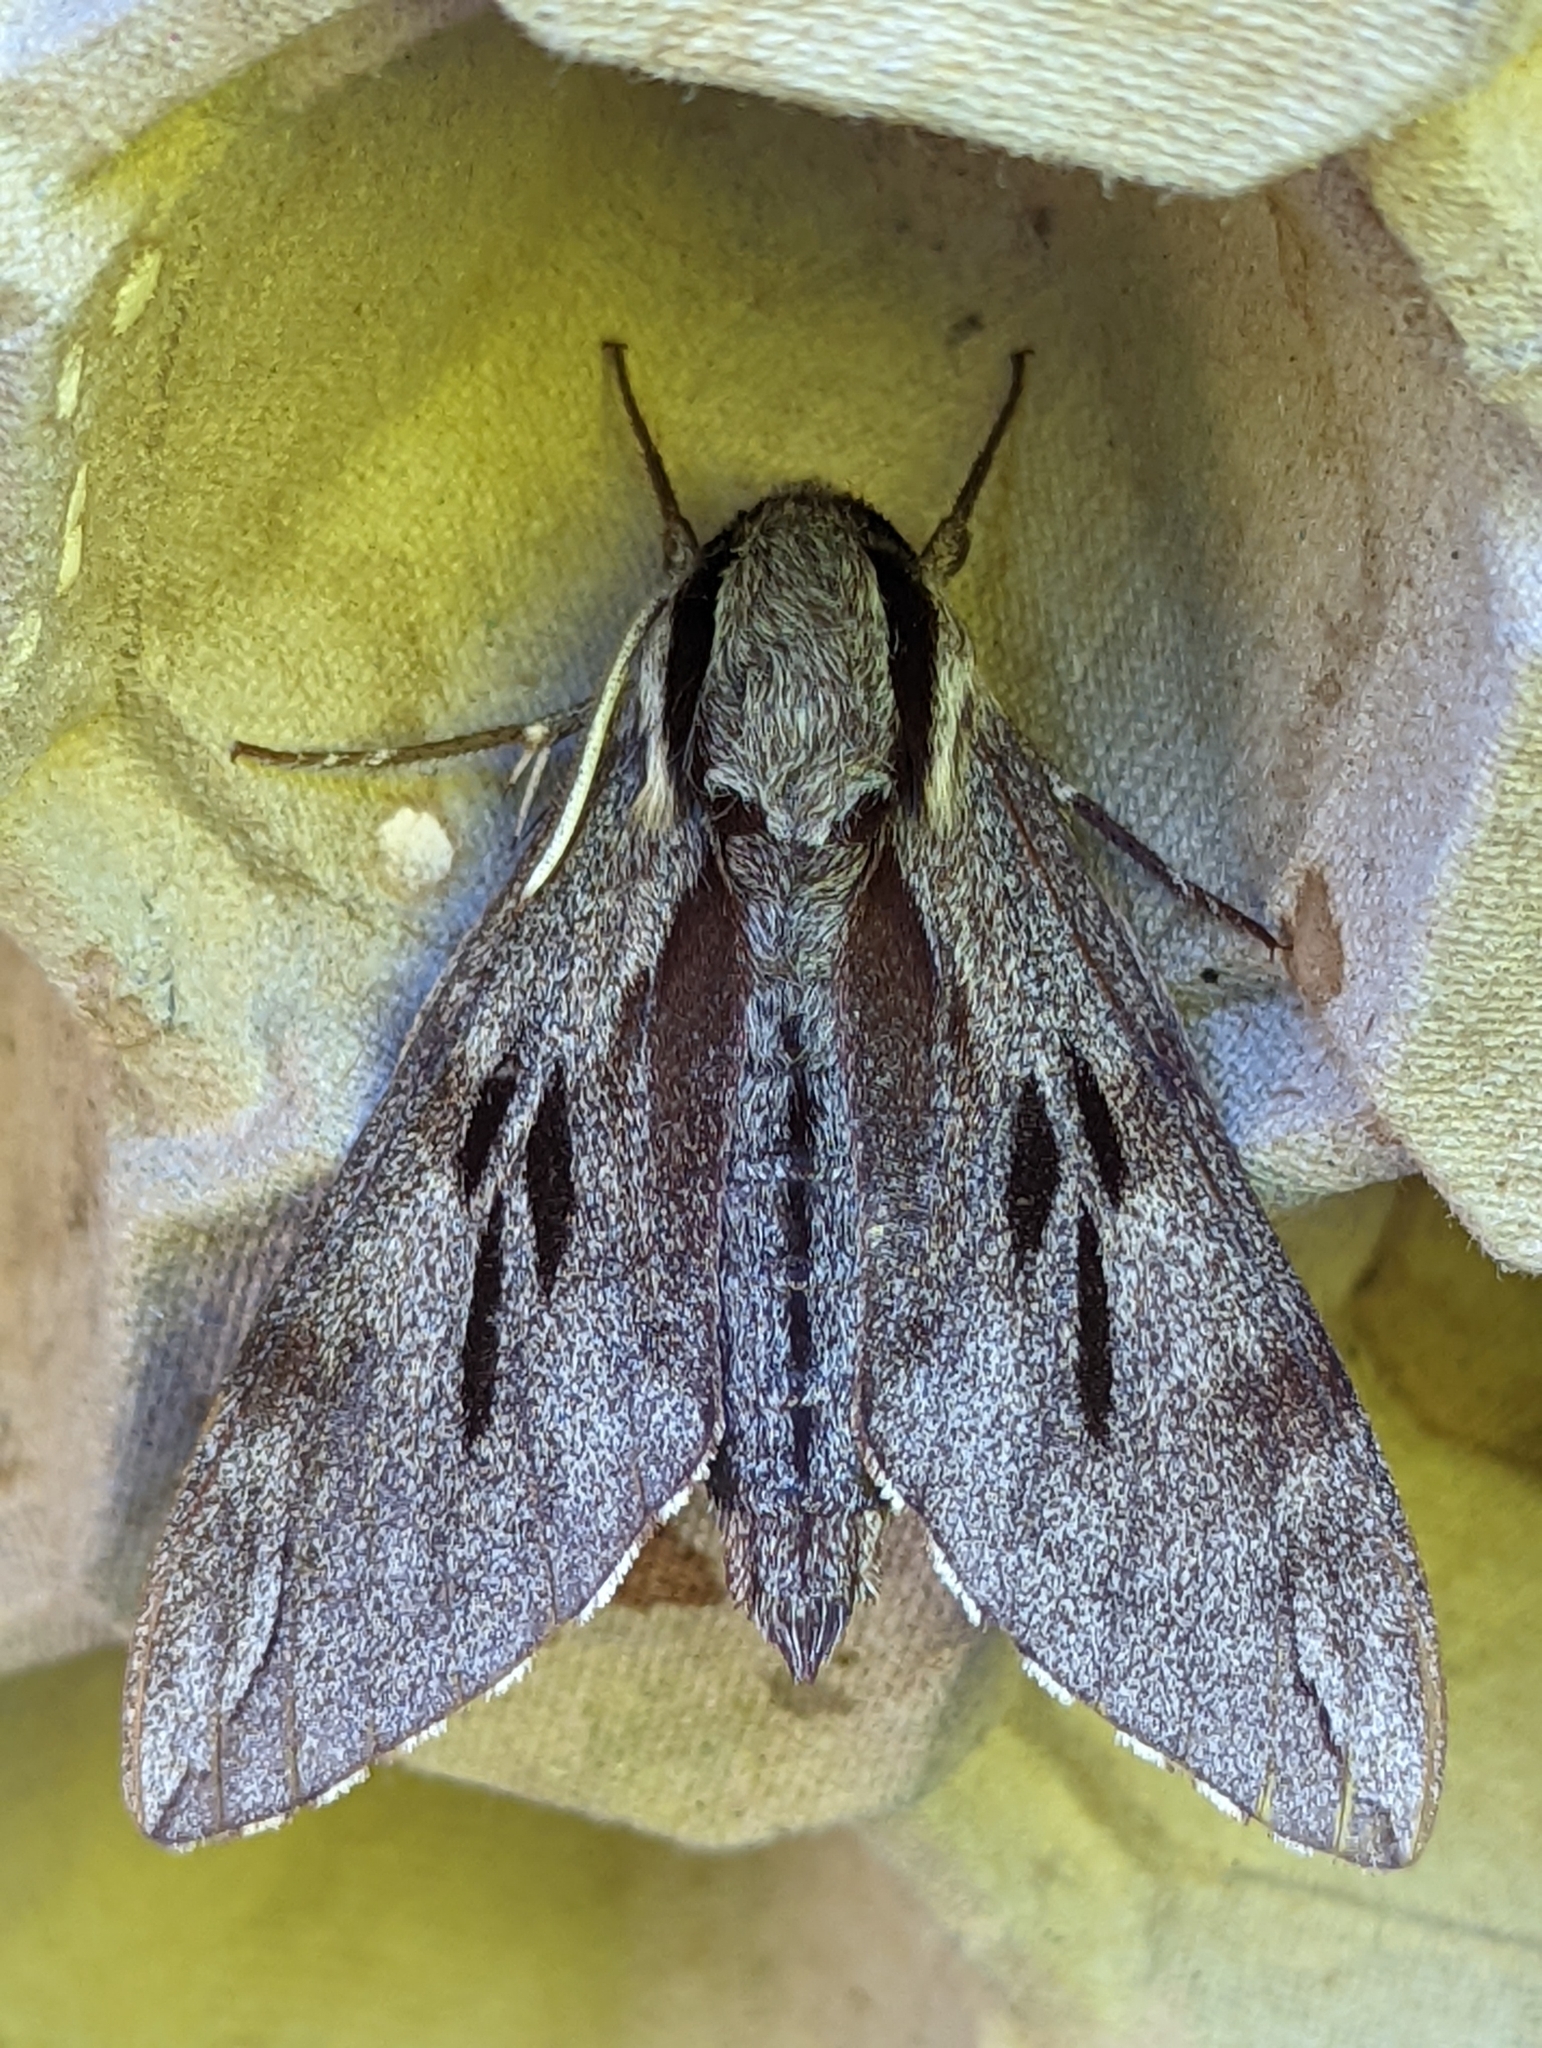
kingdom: Animalia
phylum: Arthropoda
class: Insecta
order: Lepidoptera
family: Sphingidae
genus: Sphinx
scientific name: Sphinx pinastri
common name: Pine hawk-moth
